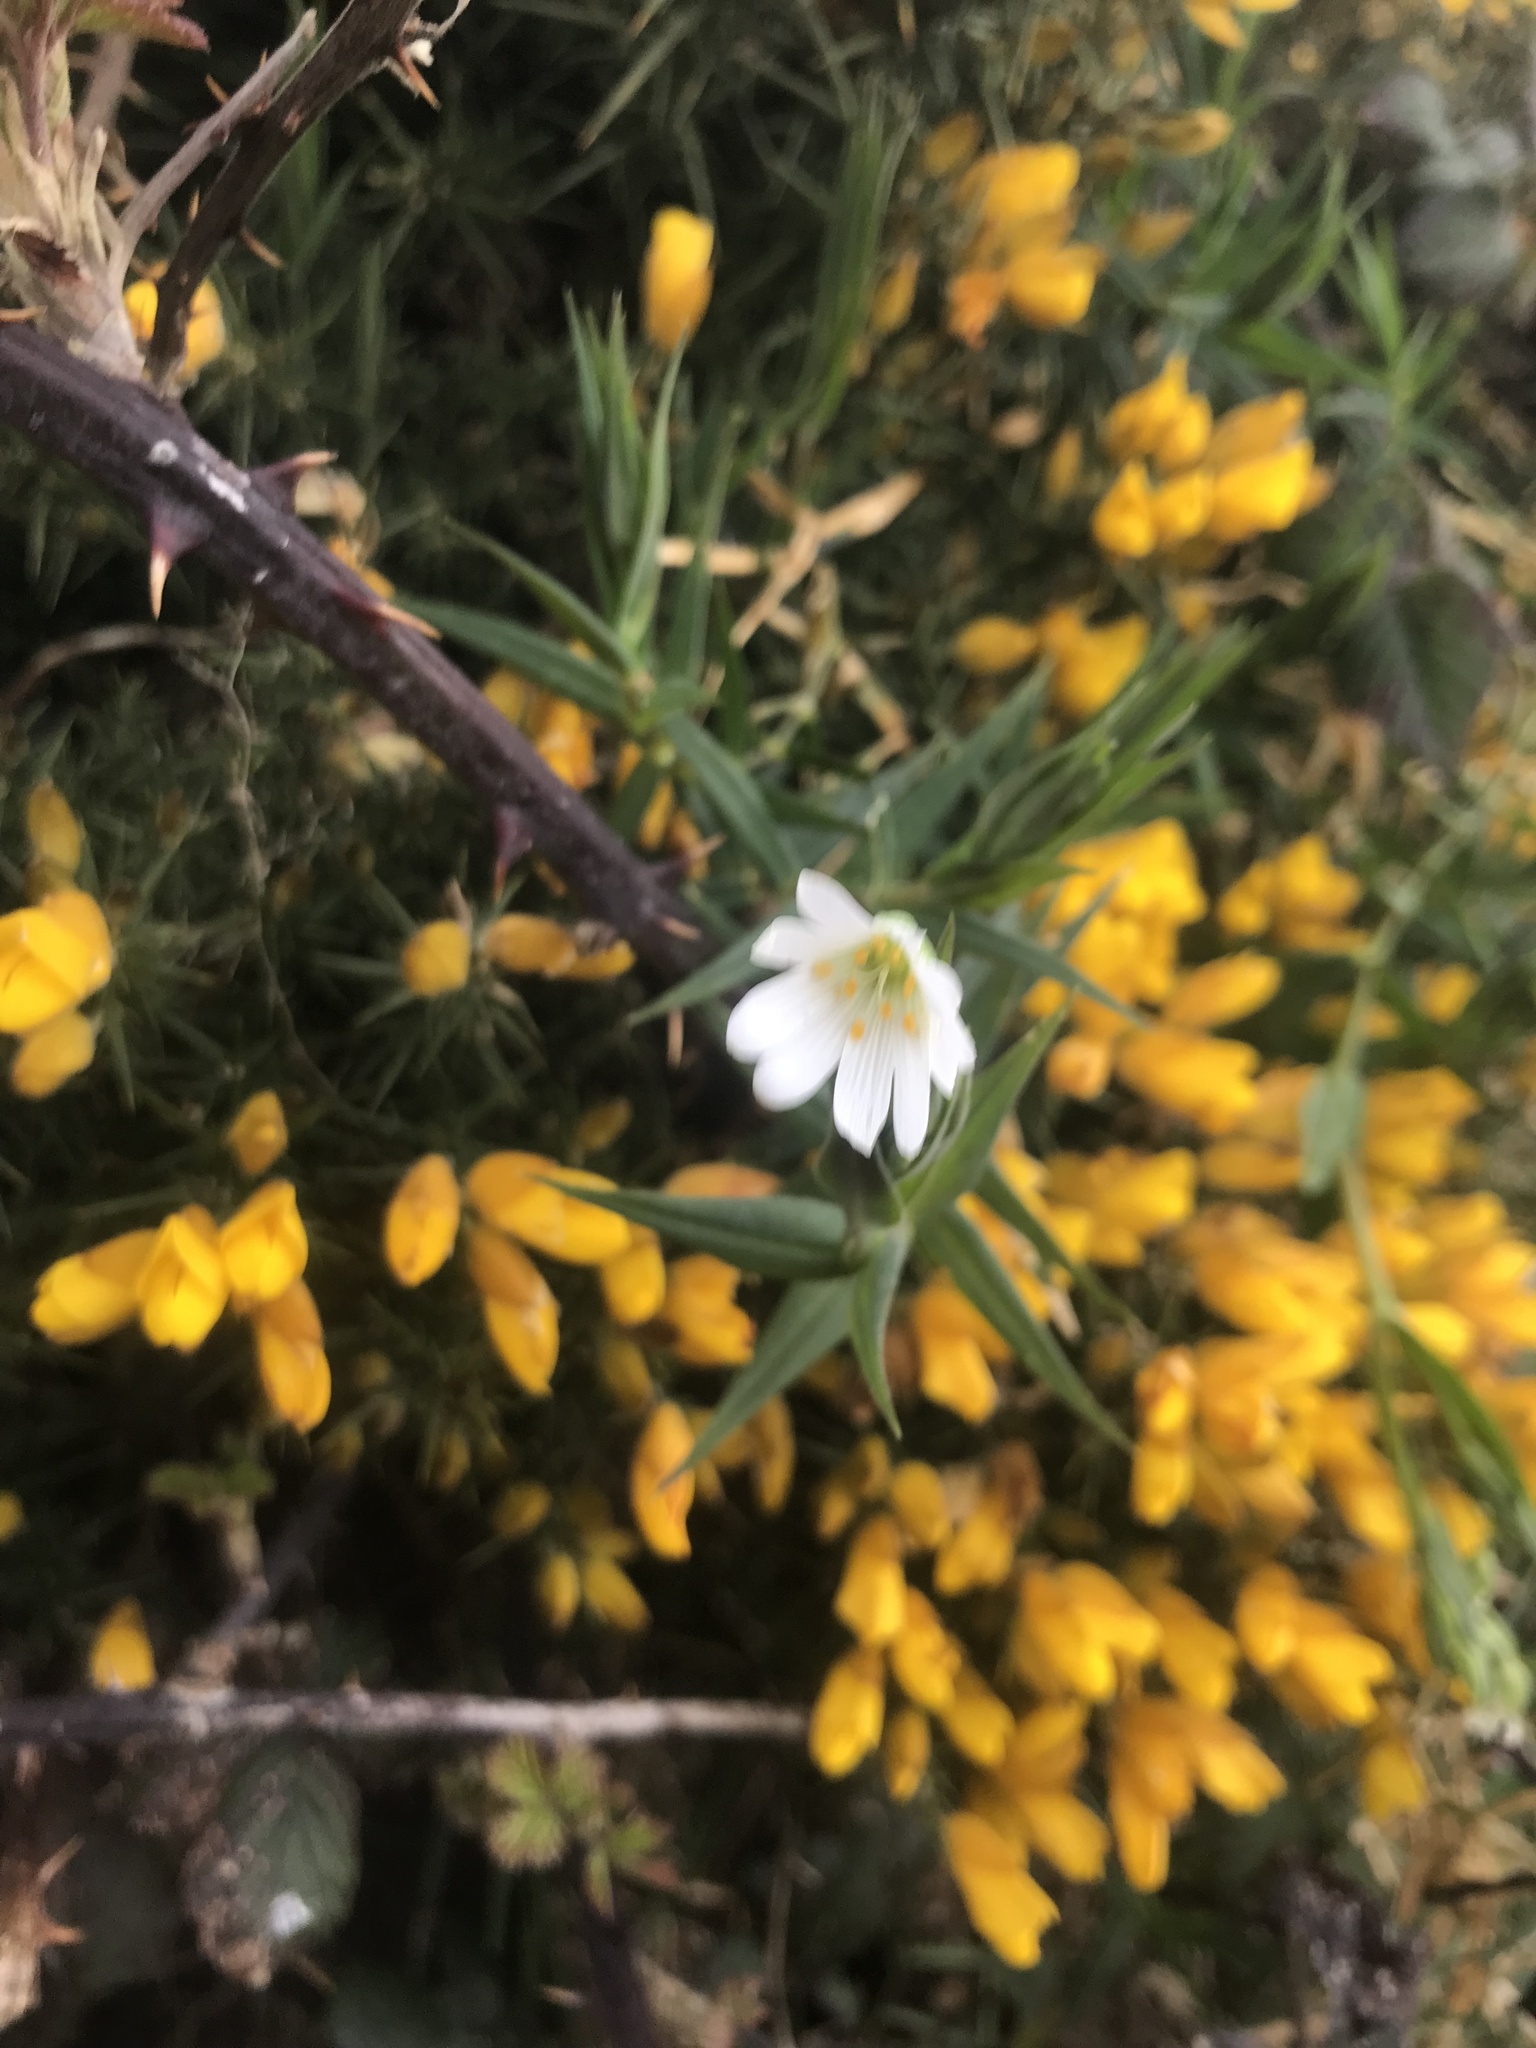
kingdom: Plantae
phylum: Tracheophyta
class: Magnoliopsida
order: Caryophyllales
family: Caryophyllaceae
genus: Rabelera
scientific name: Rabelera holostea
